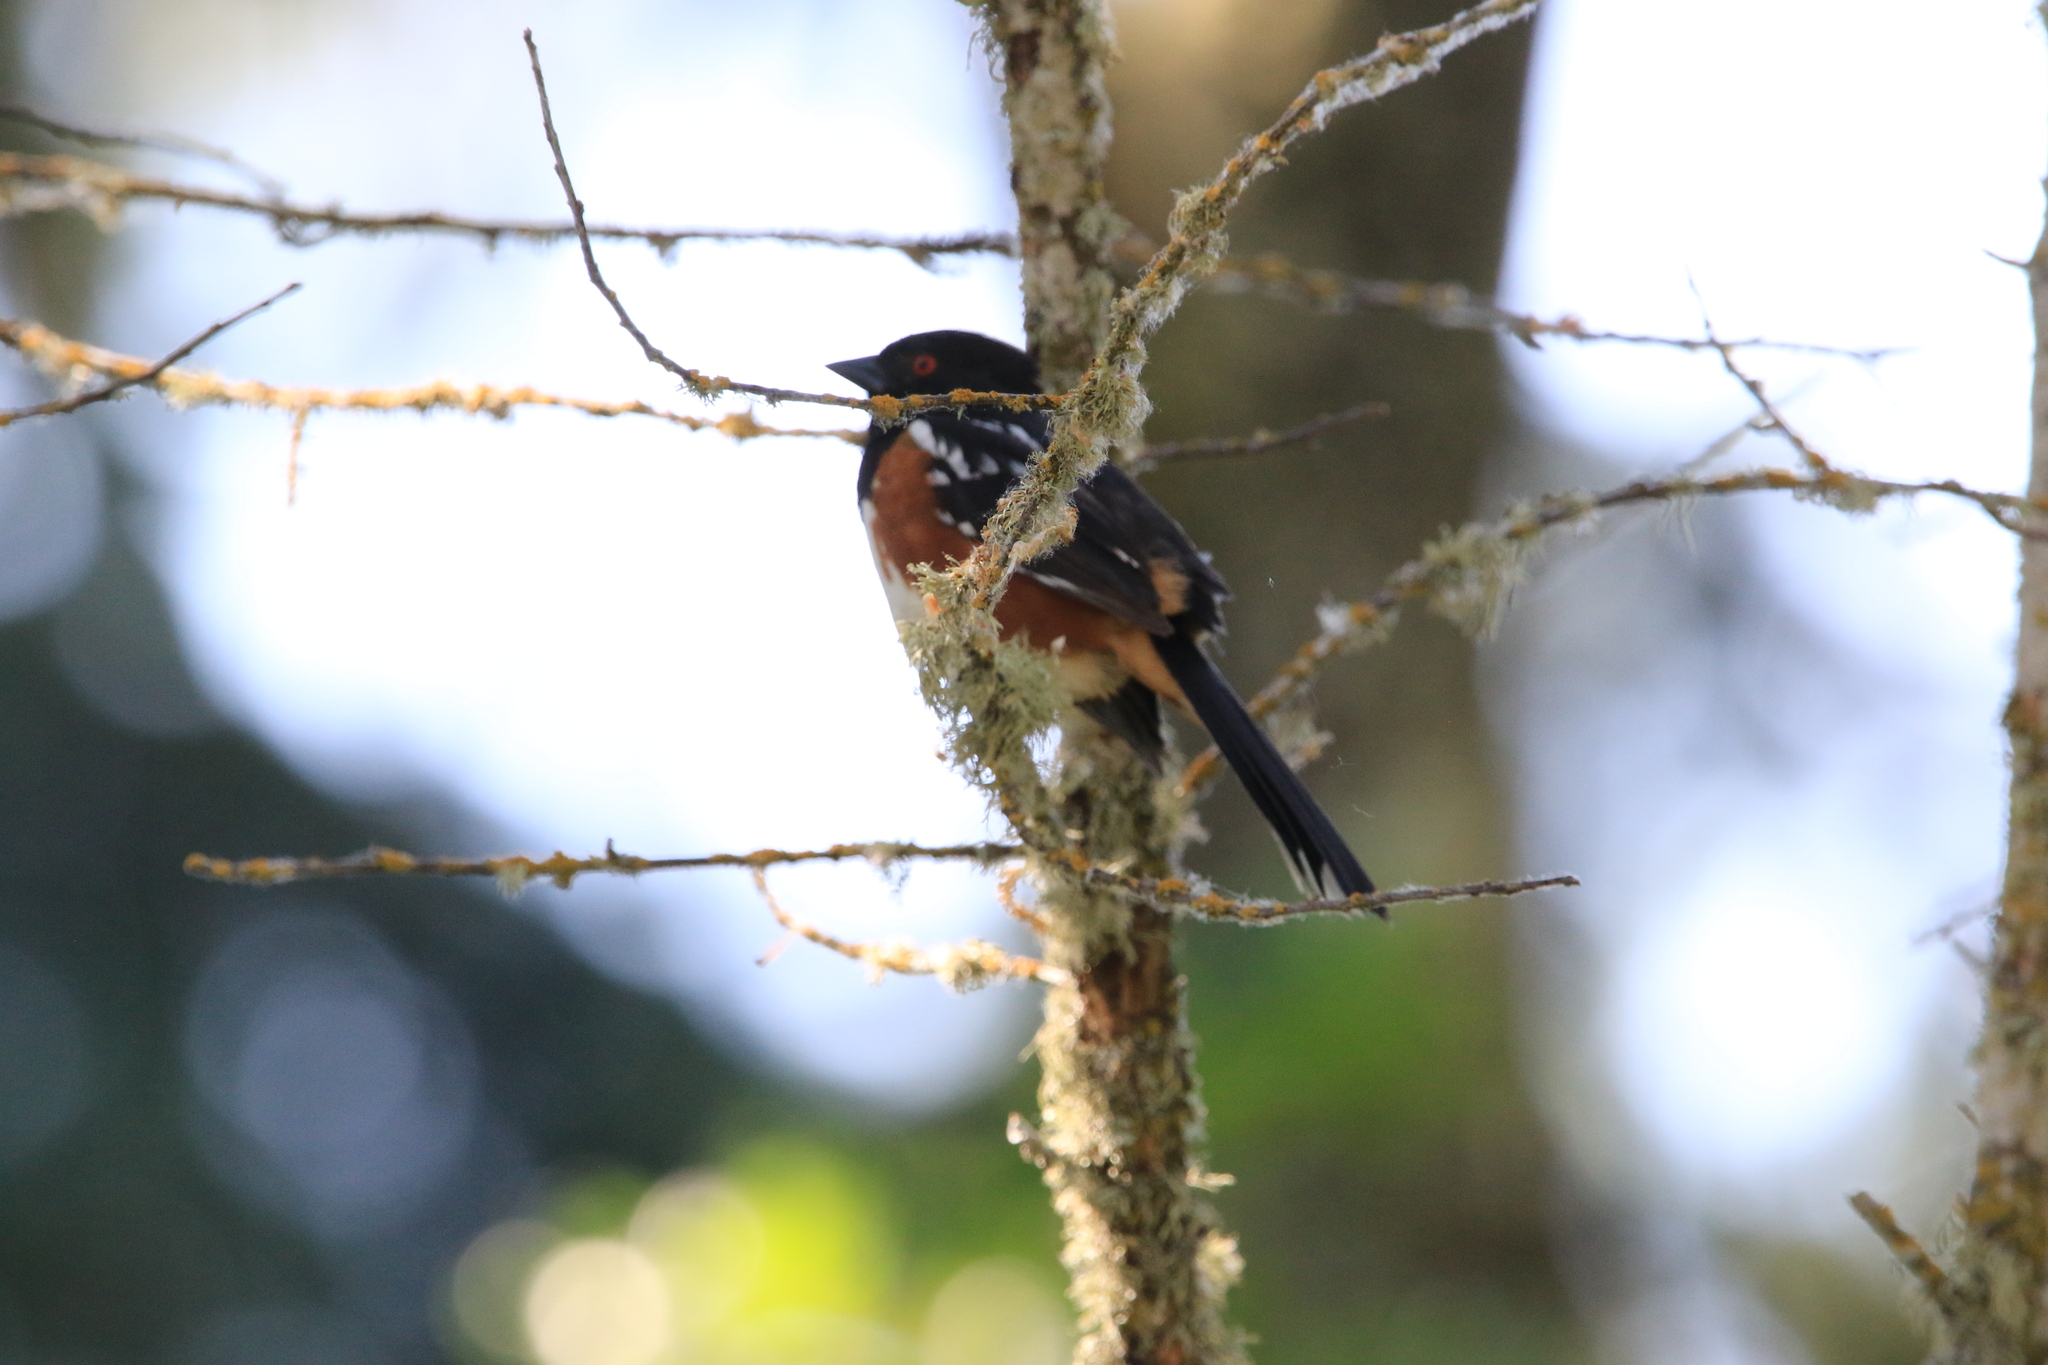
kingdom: Animalia
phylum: Chordata
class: Aves
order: Passeriformes
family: Passerellidae
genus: Pipilo
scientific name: Pipilo maculatus
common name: Spotted towhee
